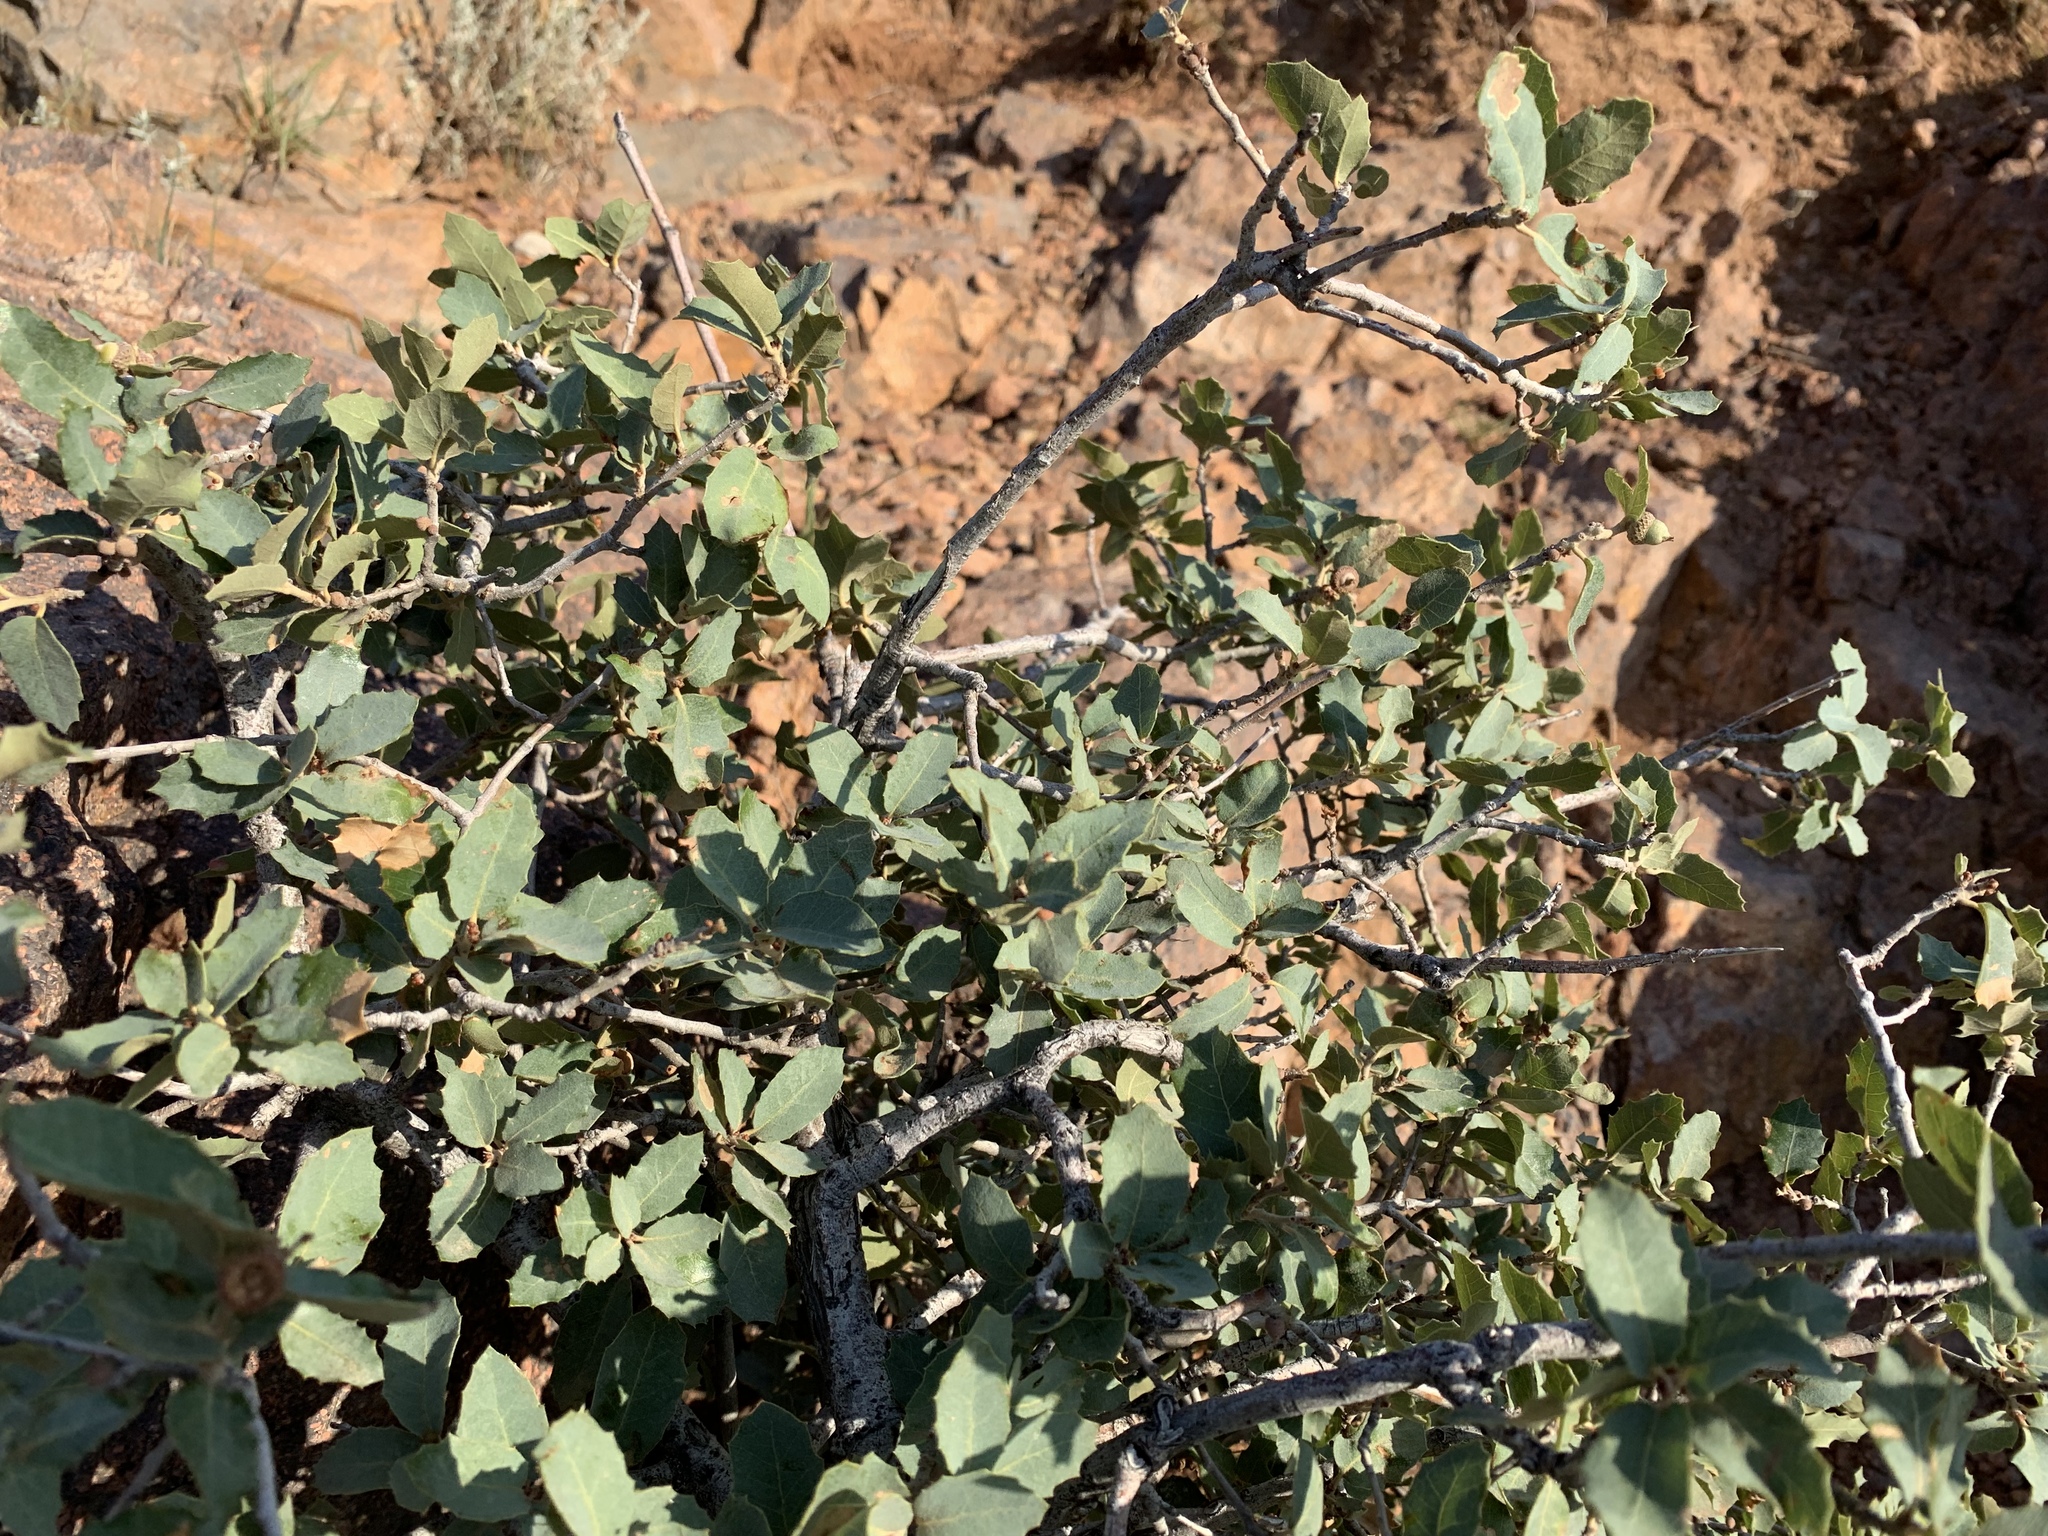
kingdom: Plantae
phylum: Tracheophyta
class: Magnoliopsida
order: Fagales
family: Fagaceae
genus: Quercus
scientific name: Quercus turbinella
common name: Sonoran scrub oak
